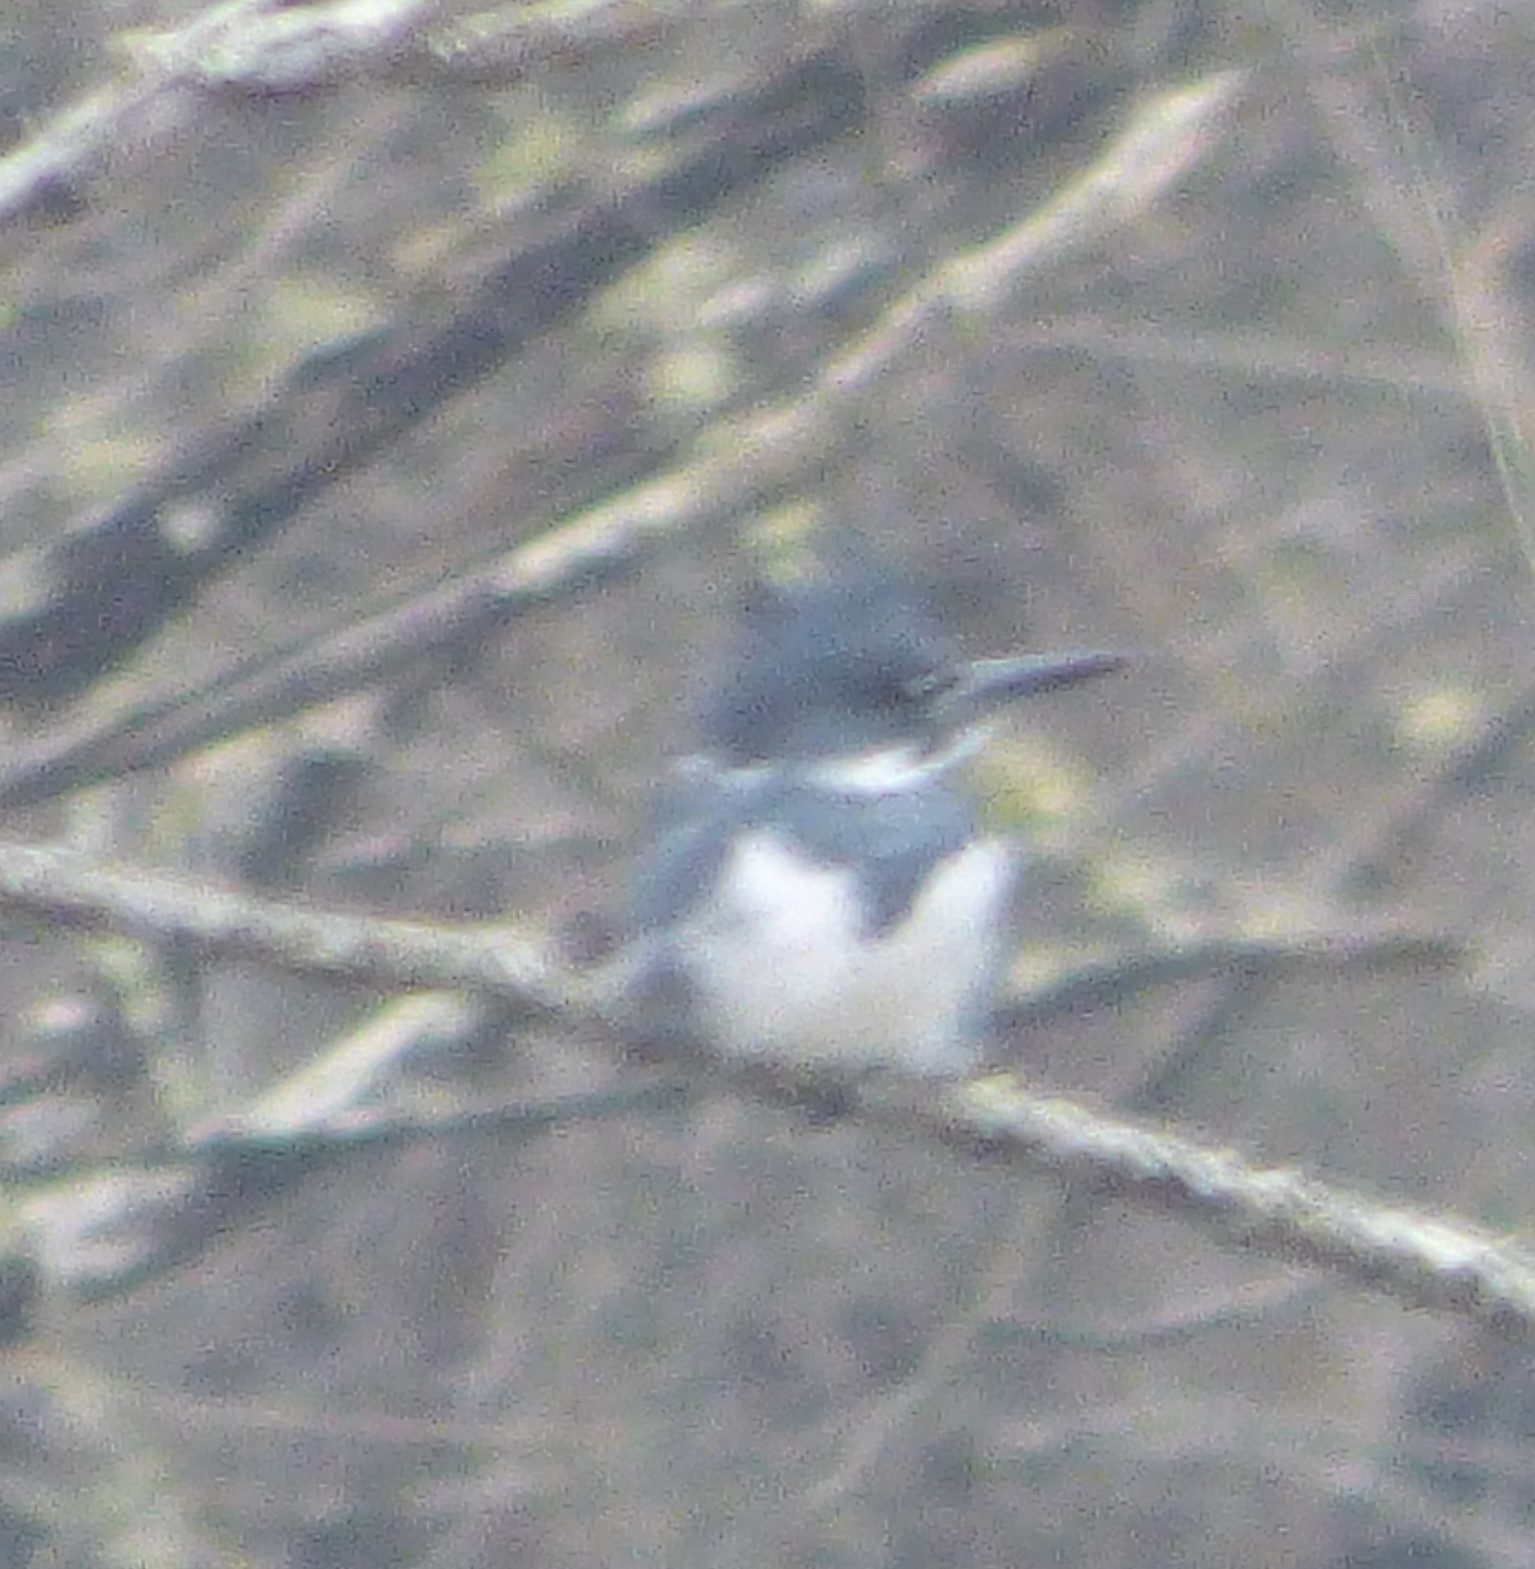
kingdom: Animalia
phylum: Chordata
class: Aves
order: Coraciiformes
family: Alcedinidae
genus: Megaceryle
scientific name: Megaceryle alcyon
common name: Belted kingfisher
